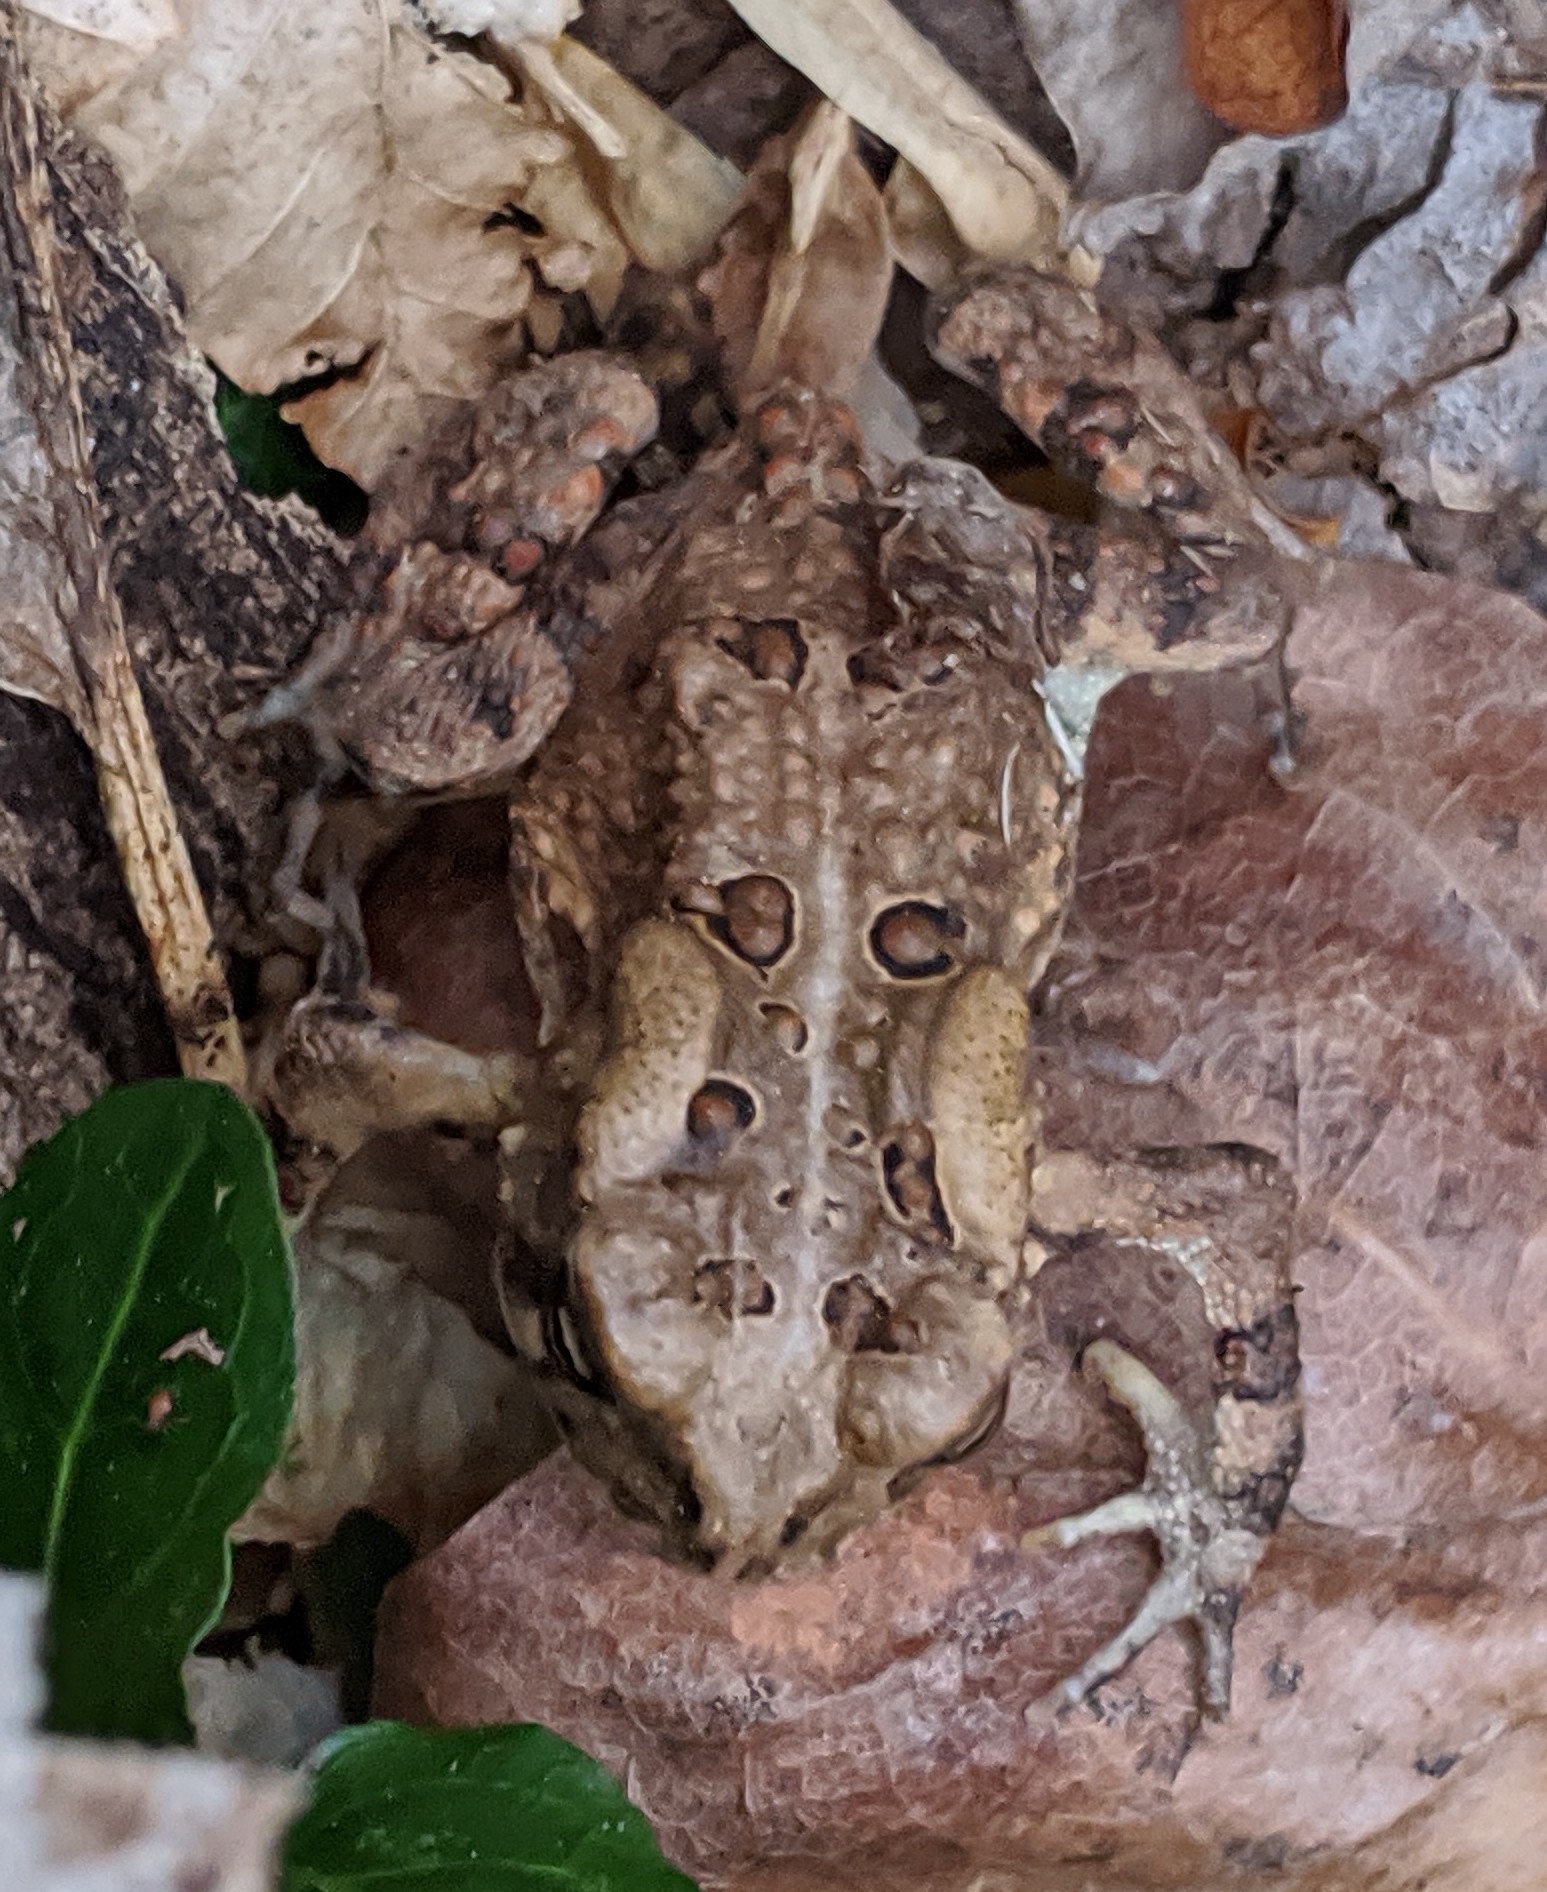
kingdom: Animalia
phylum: Chordata
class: Amphibia
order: Anura
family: Bufonidae
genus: Anaxyrus
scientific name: Anaxyrus americanus
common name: American toad
